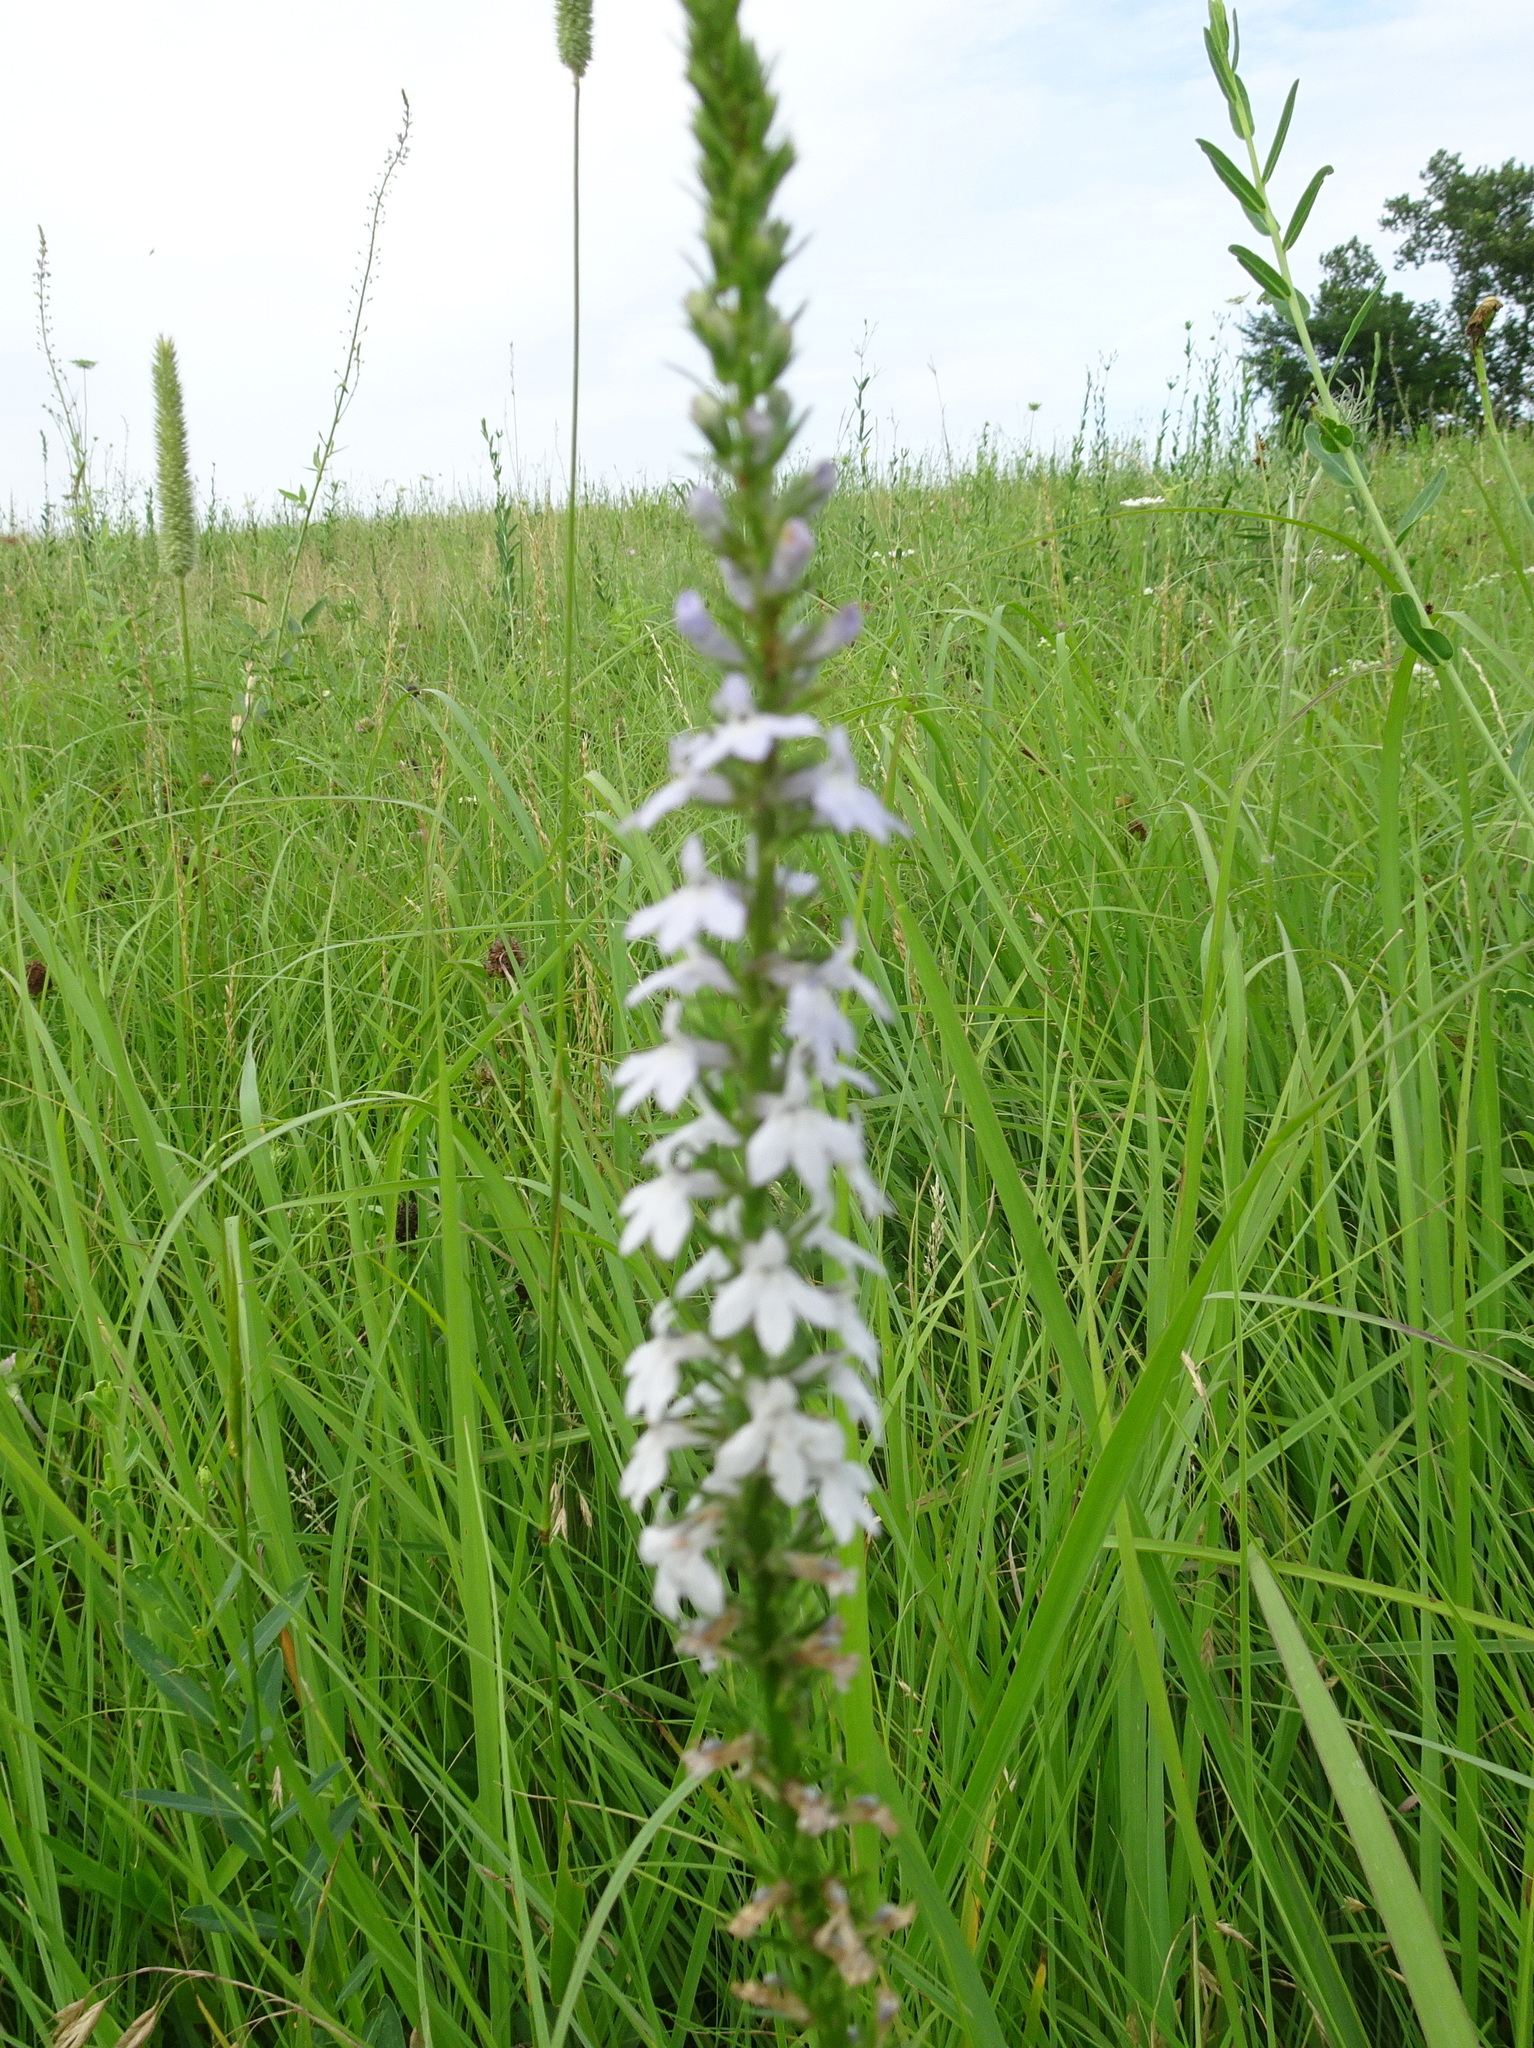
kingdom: Plantae
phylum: Tracheophyta
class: Magnoliopsida
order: Asterales
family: Campanulaceae
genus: Lobelia
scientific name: Lobelia spicata
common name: Pale-spike lobelia
